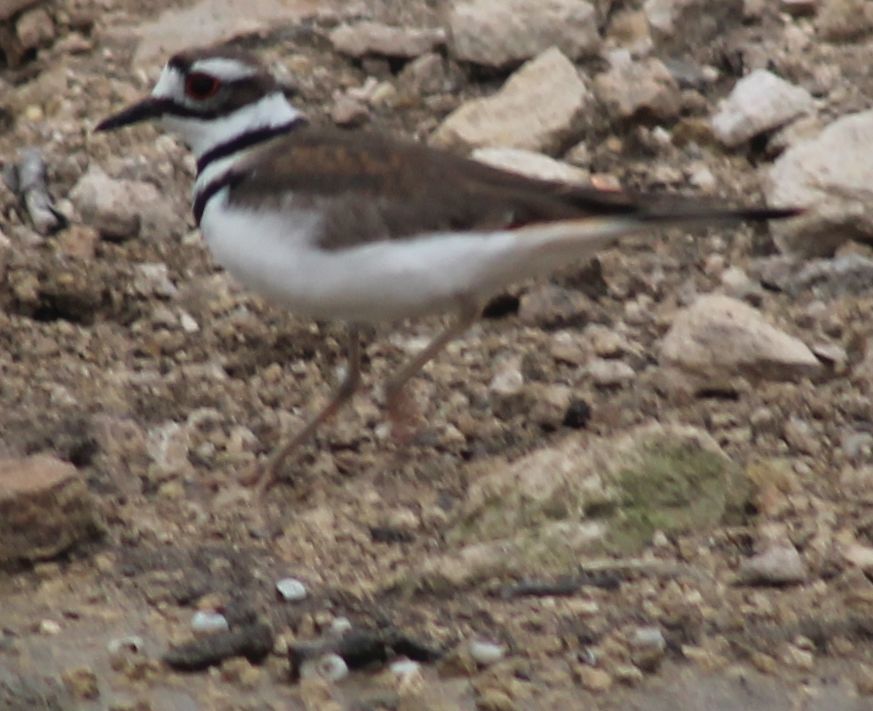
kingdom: Animalia
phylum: Chordata
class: Aves
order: Charadriiformes
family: Charadriidae
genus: Charadrius
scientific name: Charadrius vociferus
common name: Killdeer
